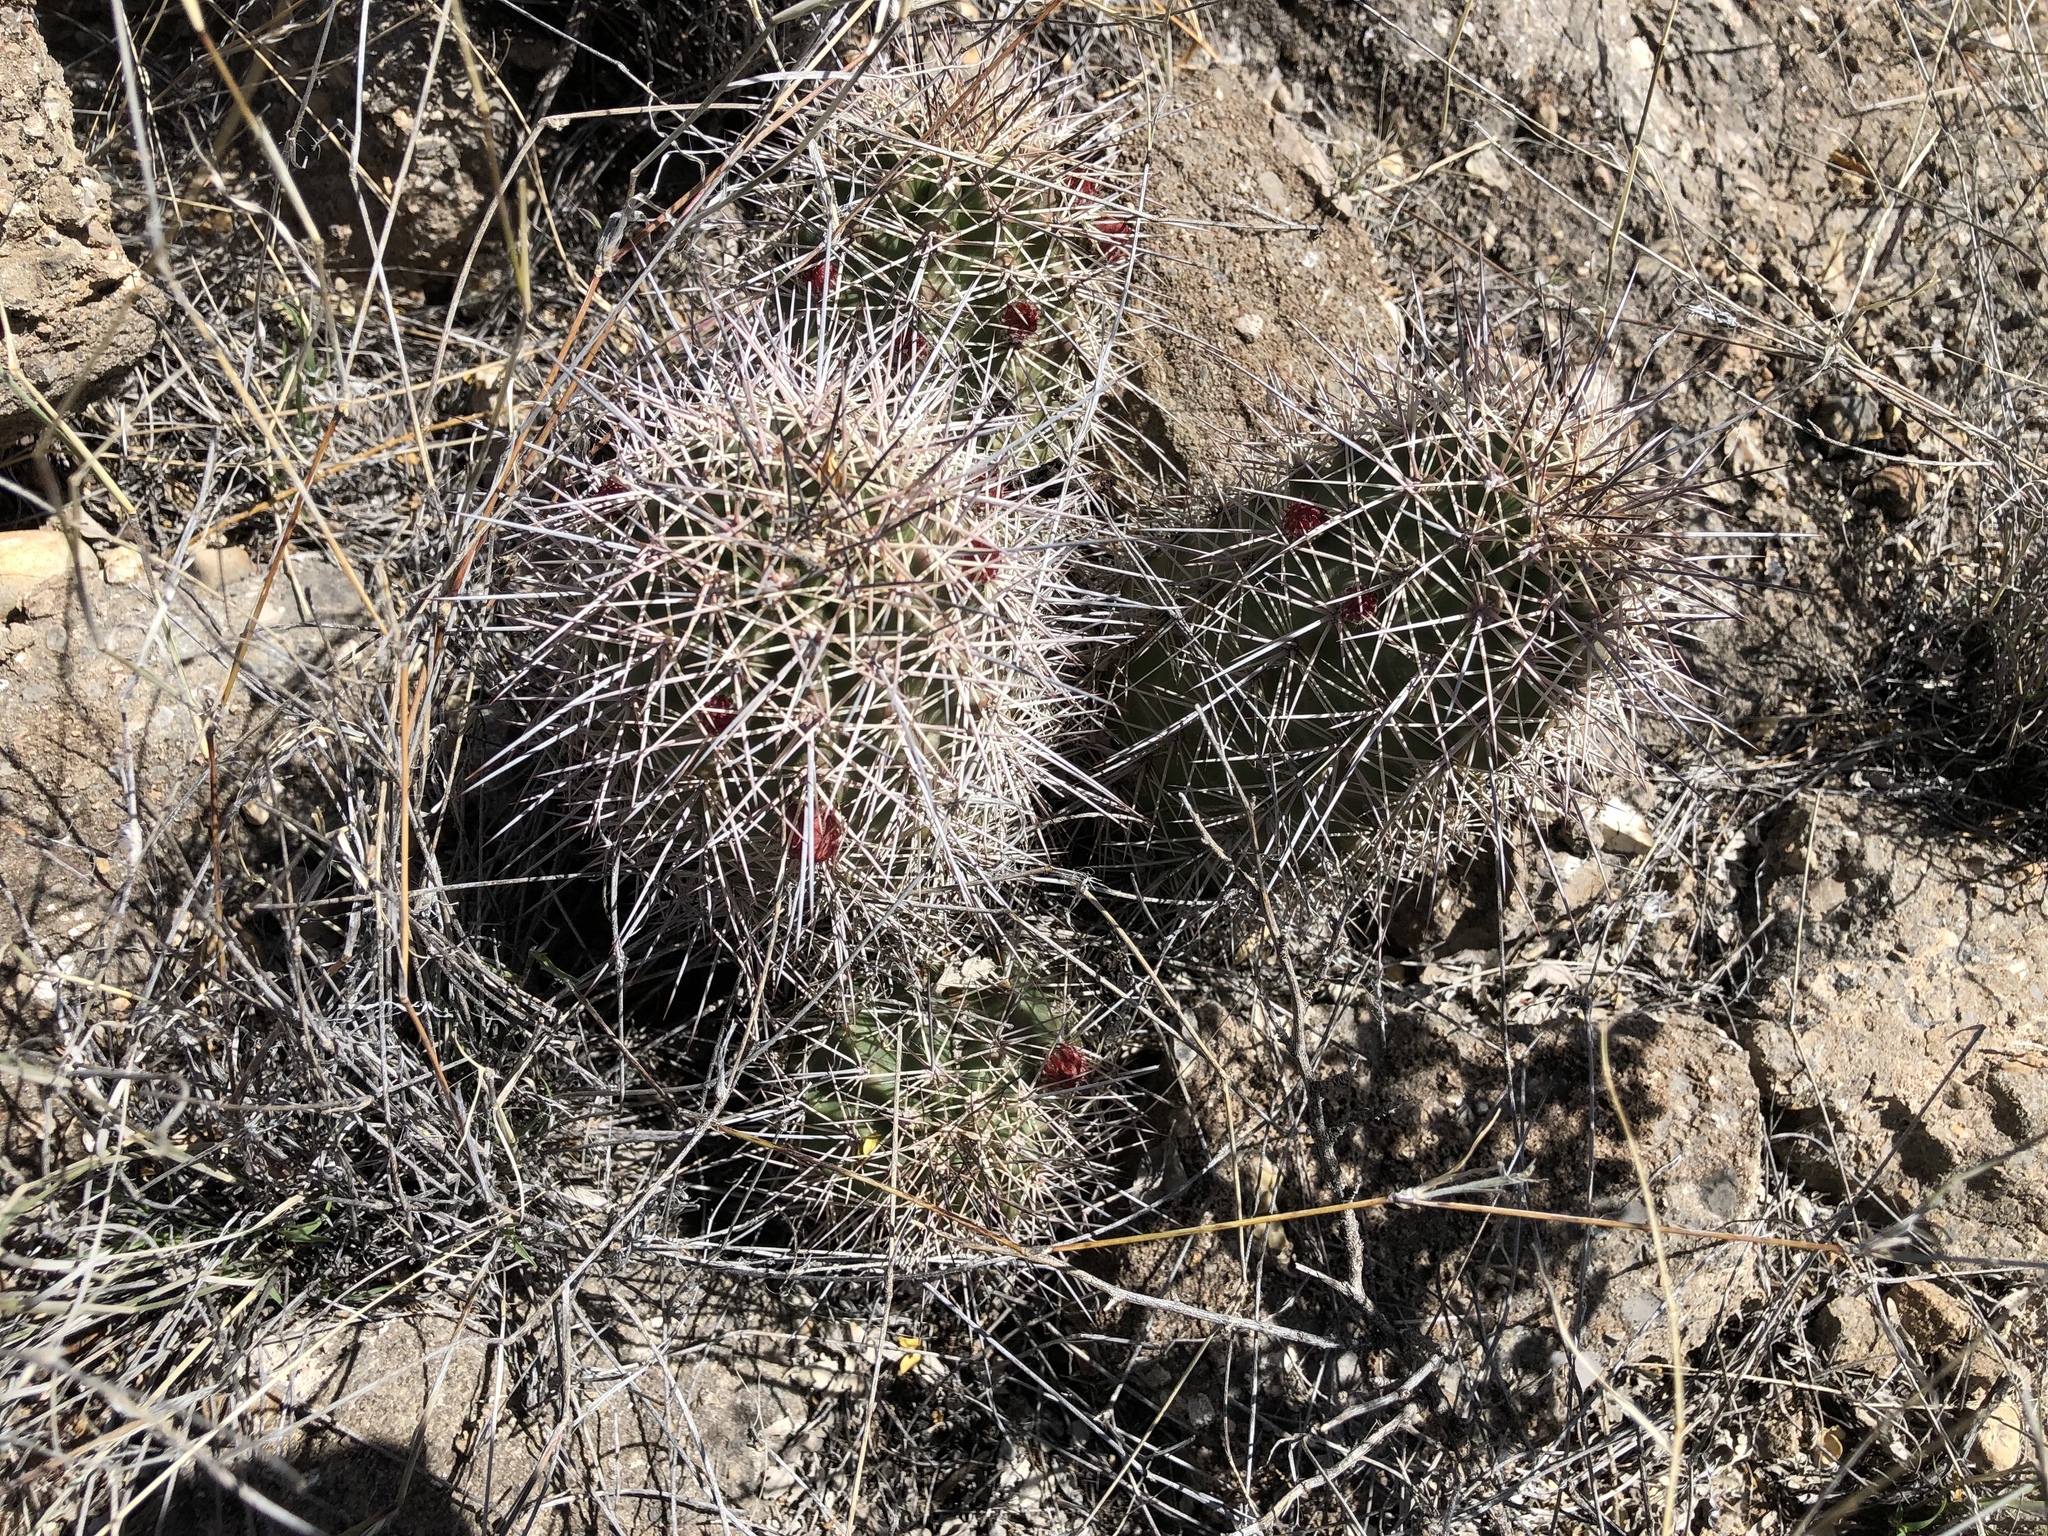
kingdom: Plantae
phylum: Tracheophyta
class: Magnoliopsida
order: Caryophyllales
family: Cactaceae
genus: Echinocereus
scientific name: Echinocereus coccineus
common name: Scarlet hedgehog cactus
